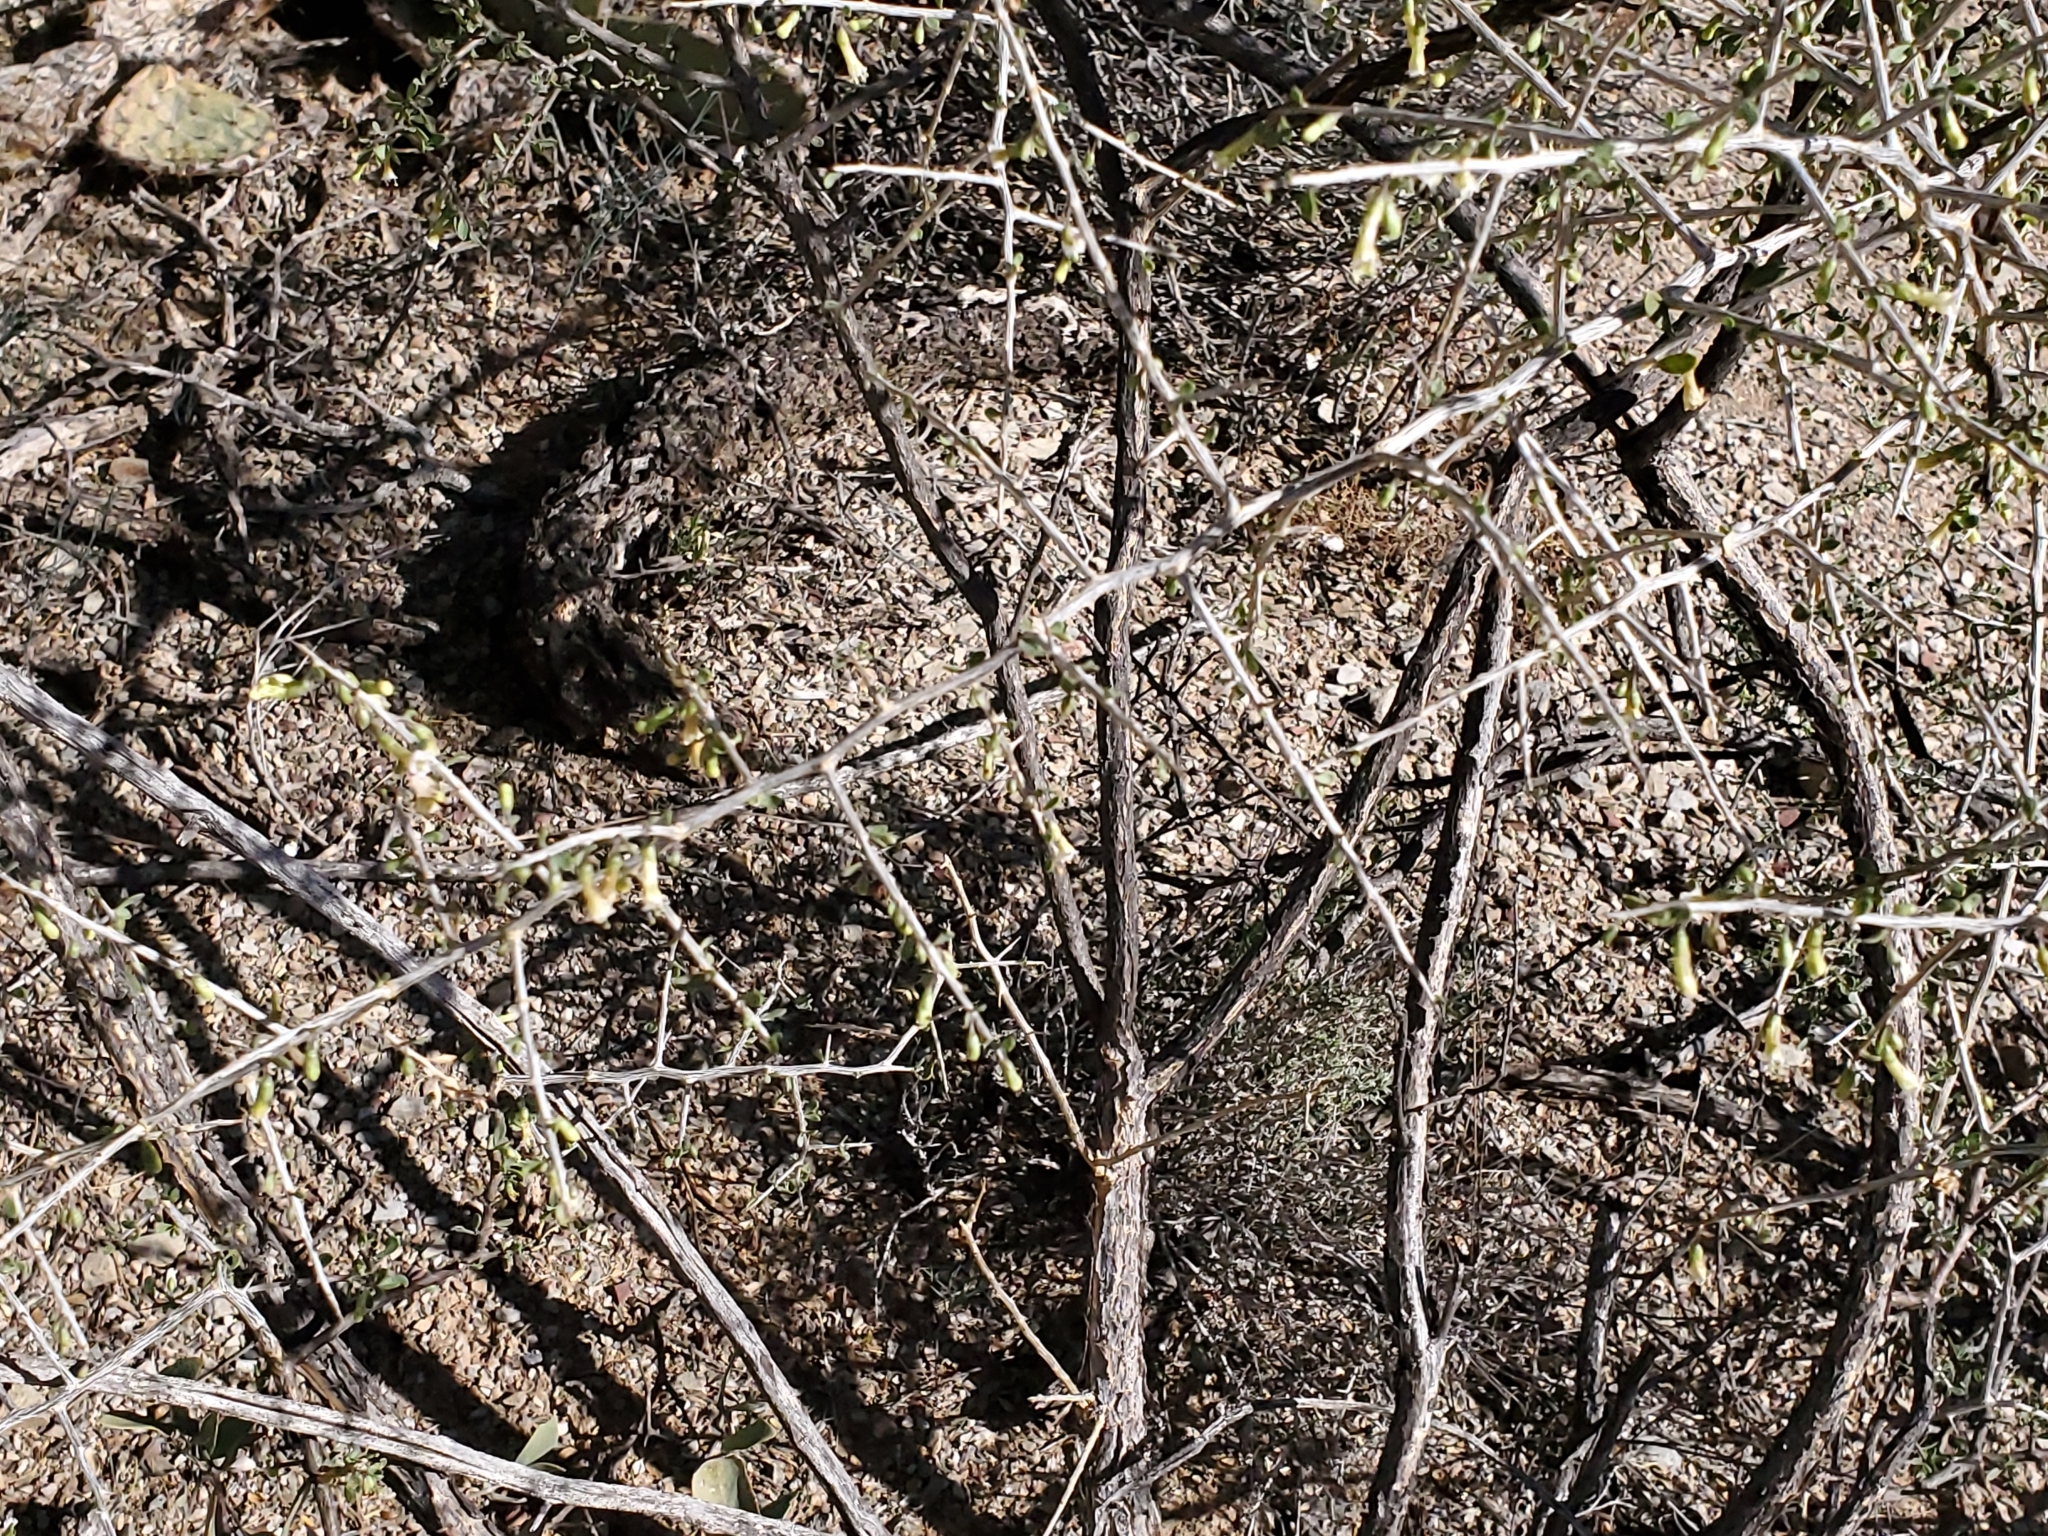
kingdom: Plantae
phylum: Tracheophyta
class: Magnoliopsida
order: Solanales
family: Solanaceae
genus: Lycium
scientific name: Lycium exsertum
